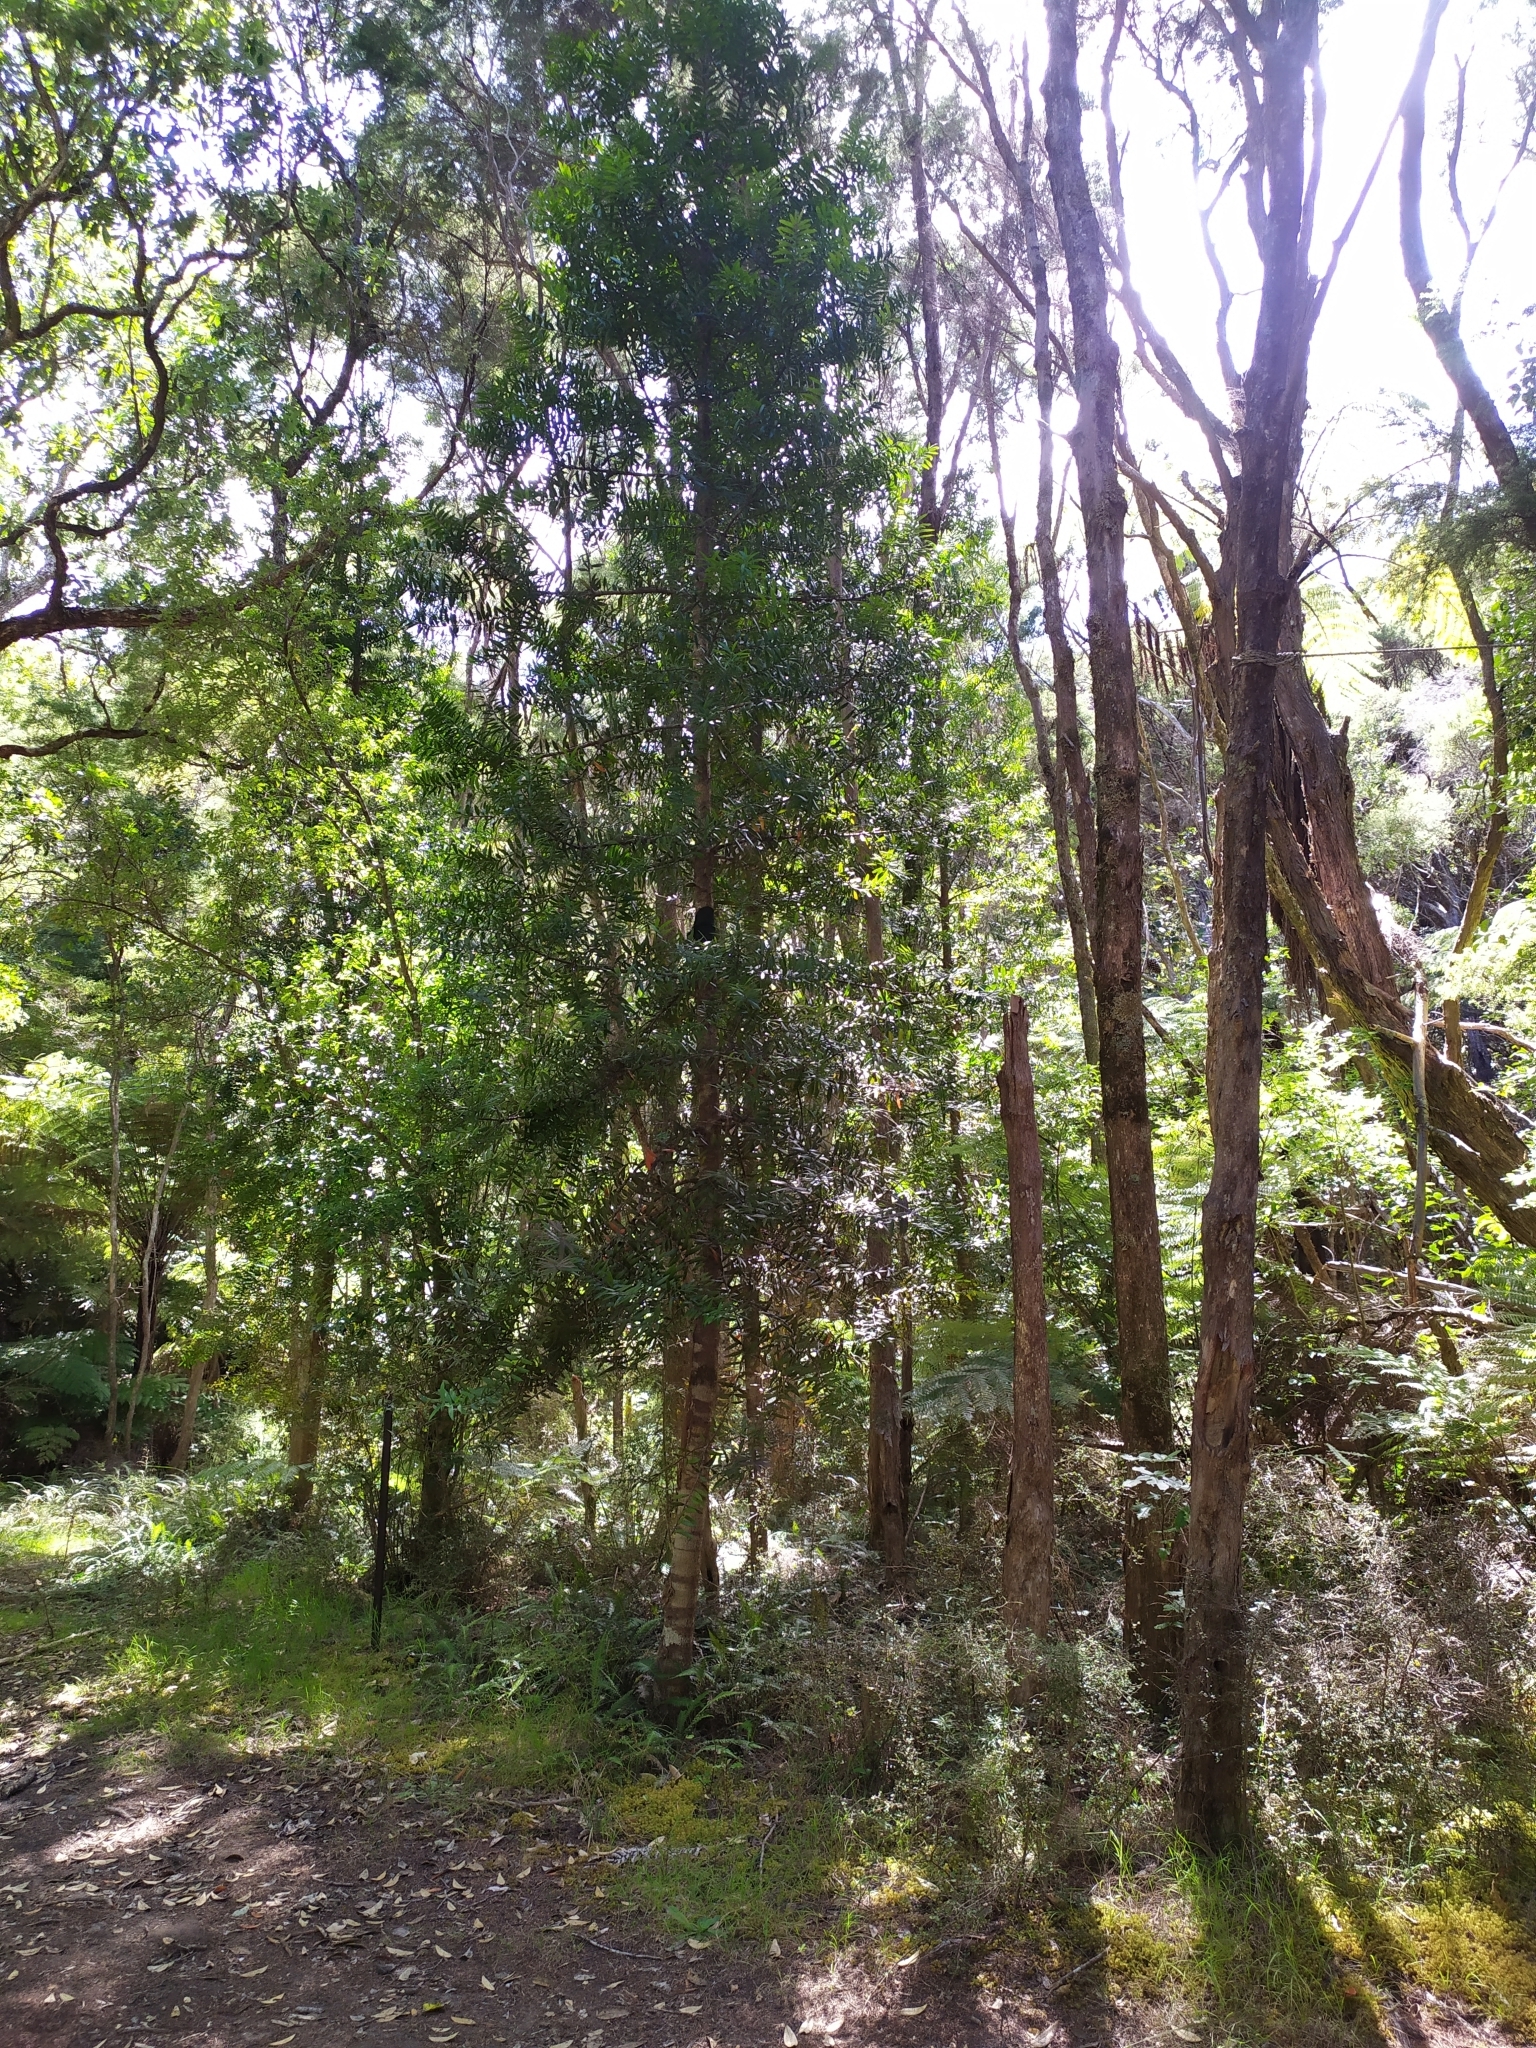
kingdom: Plantae
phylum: Tracheophyta
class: Pinopsida
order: Pinales
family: Araucariaceae
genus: Agathis
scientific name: Agathis australis
